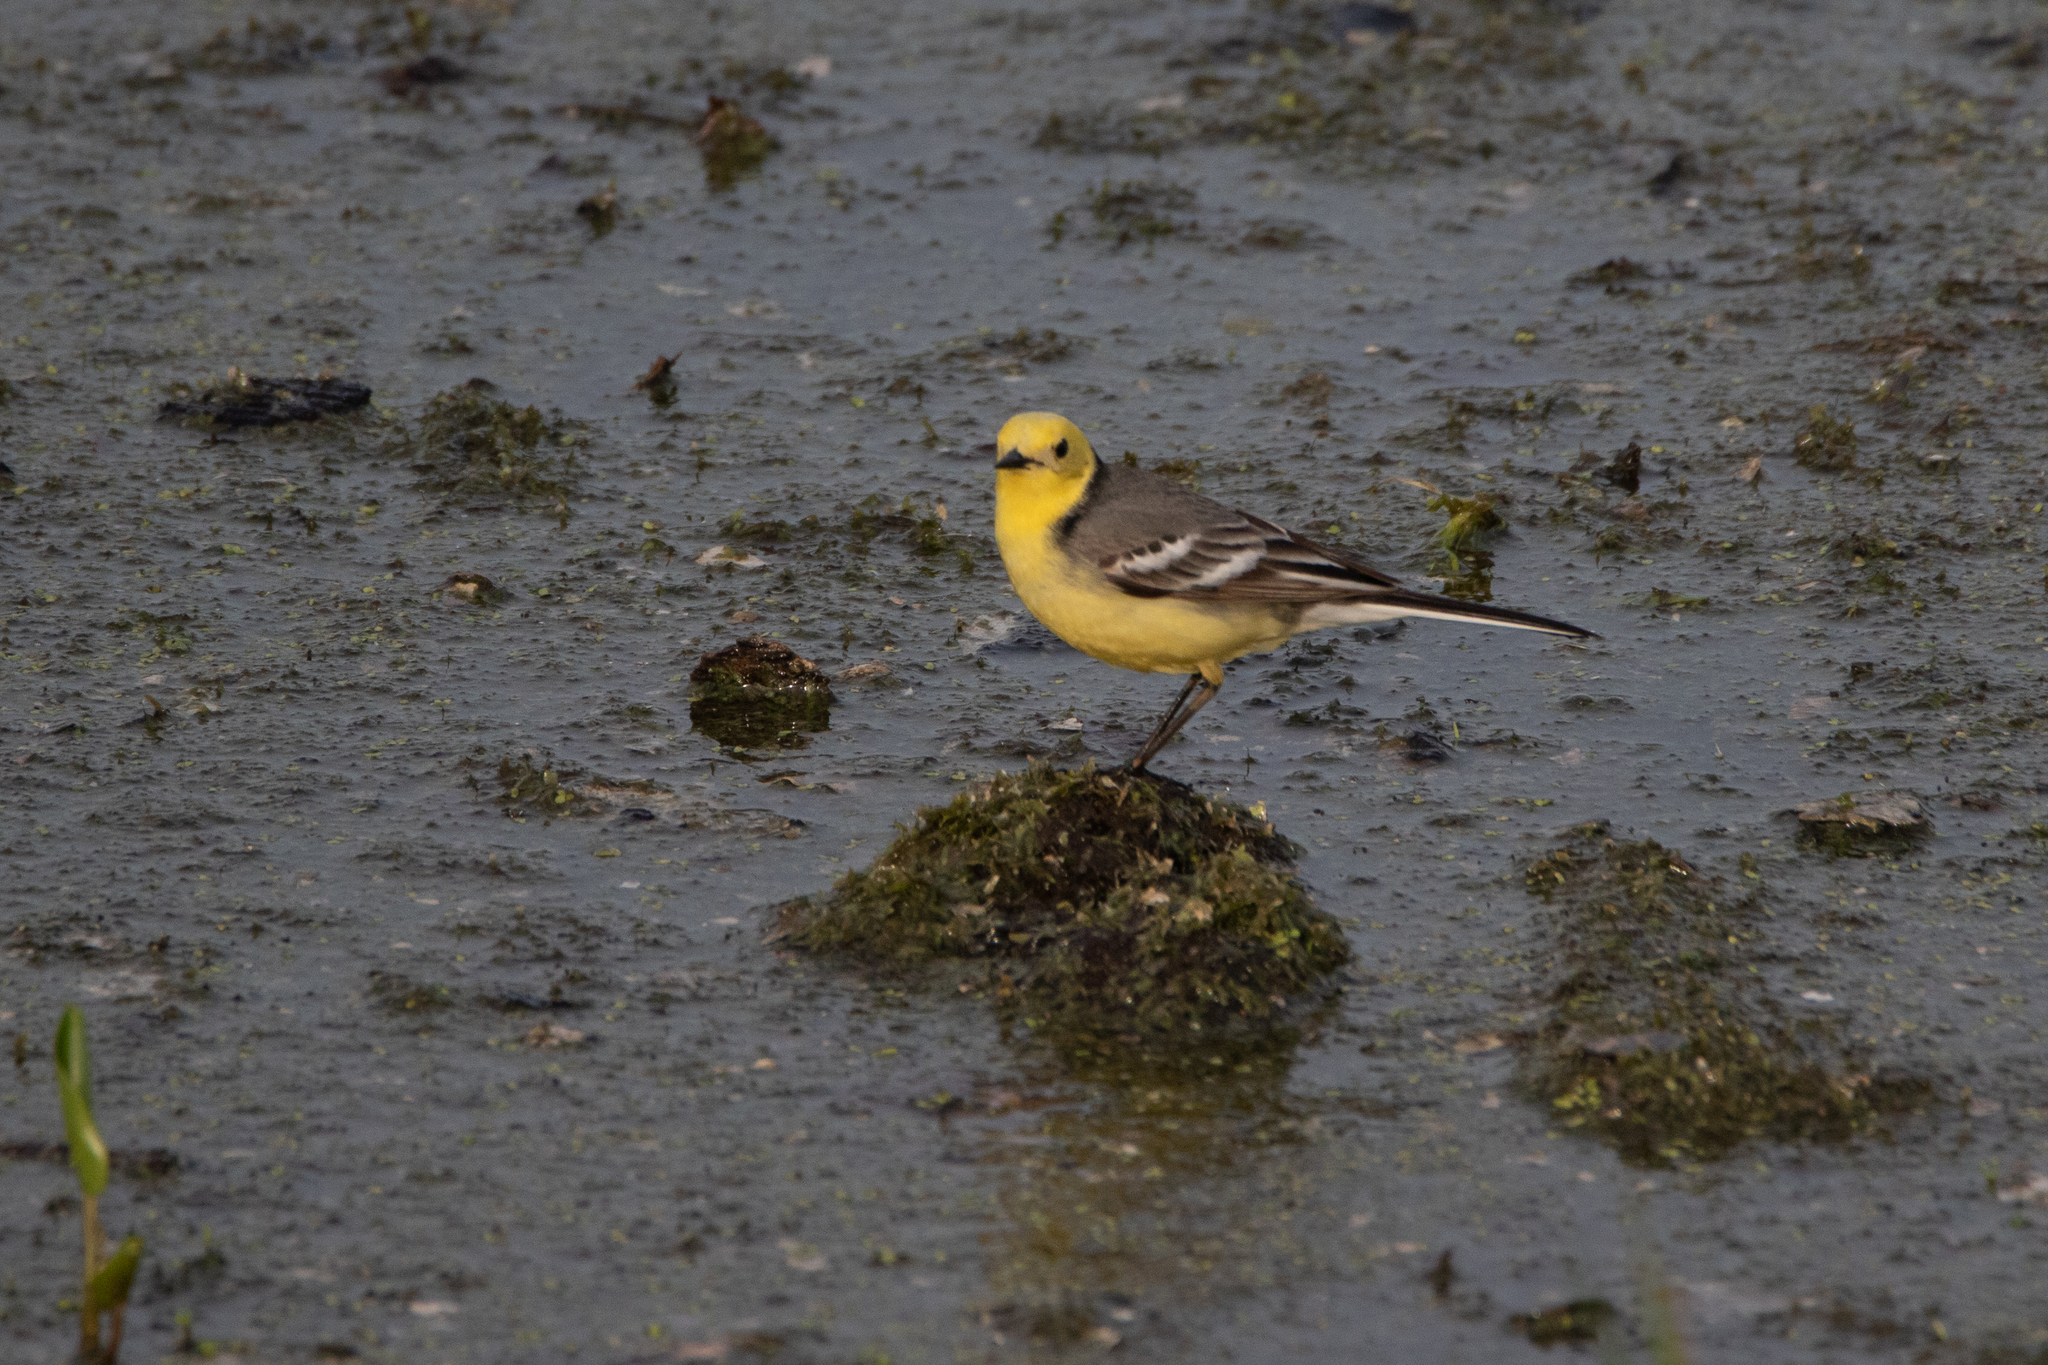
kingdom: Animalia
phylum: Chordata
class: Aves
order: Passeriformes
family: Motacillidae
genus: Motacilla
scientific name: Motacilla citreola
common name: Citrine wagtail
